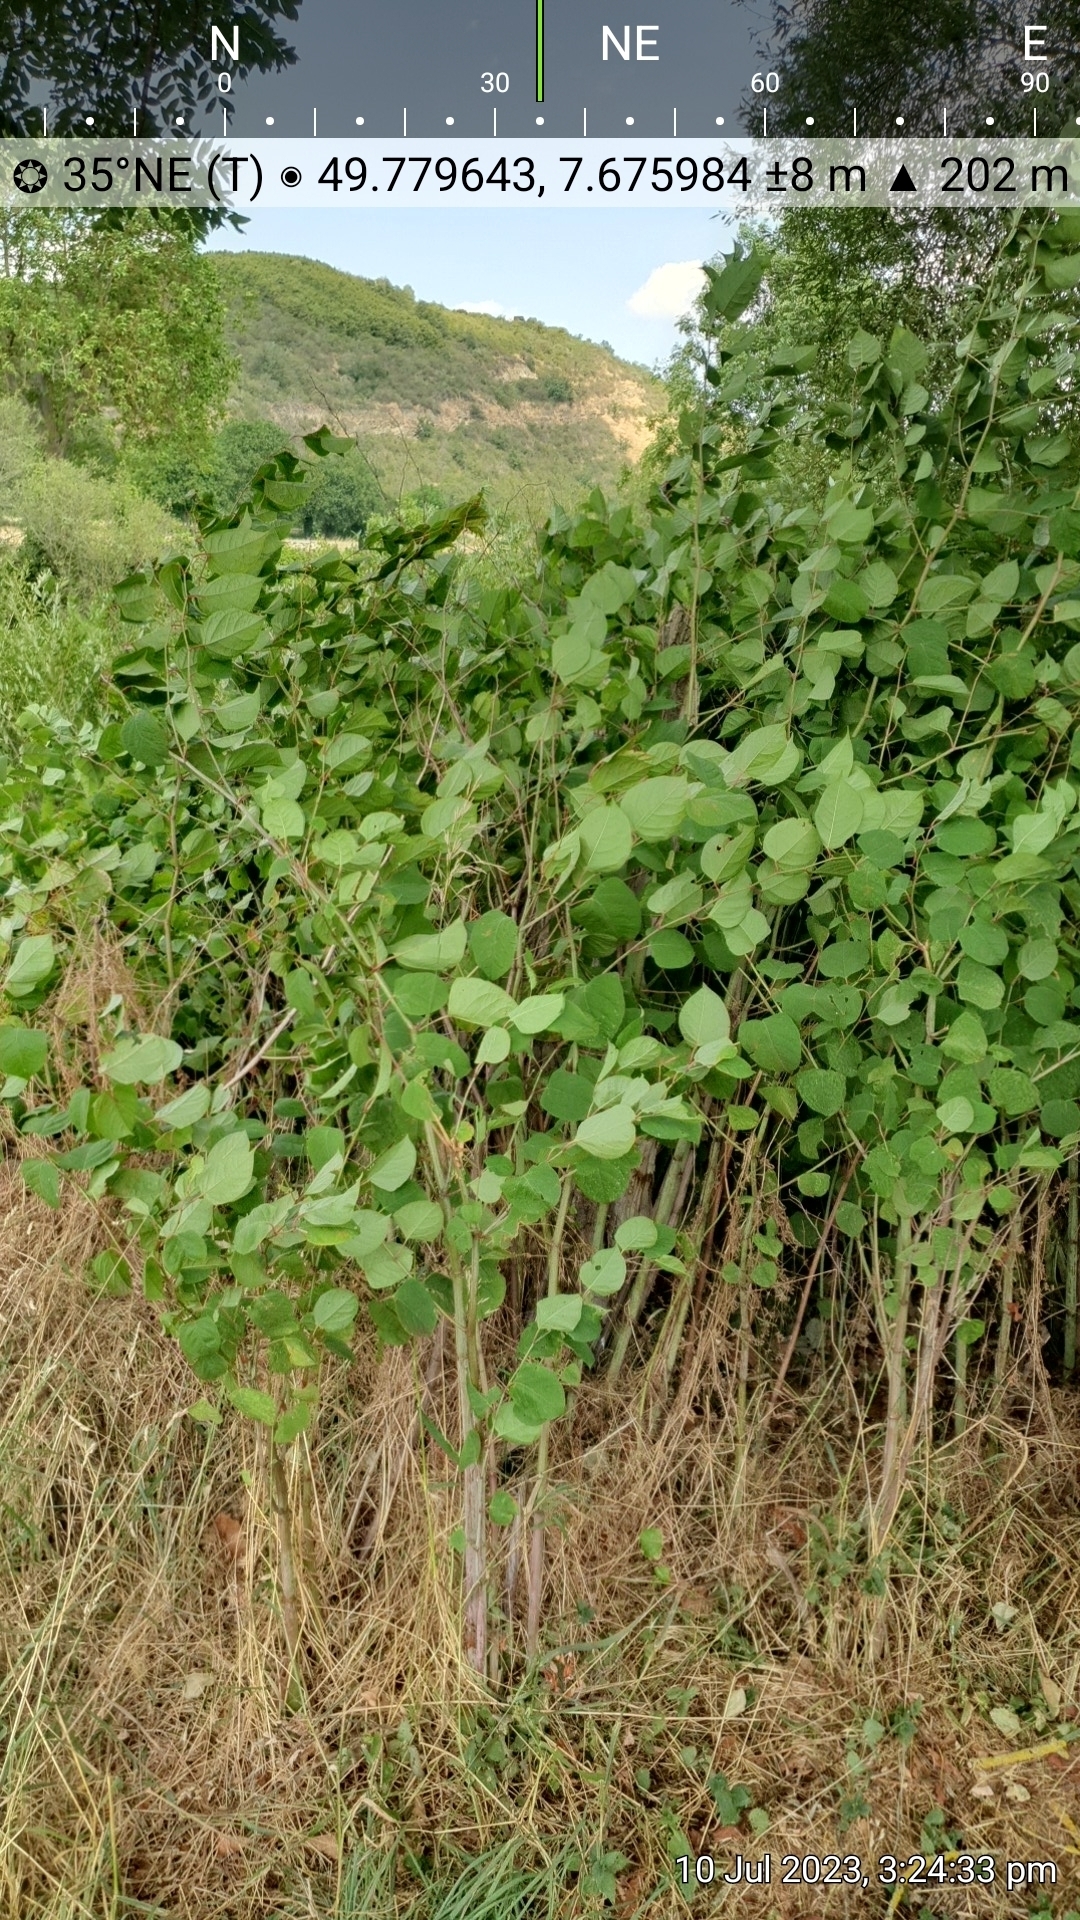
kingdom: Plantae
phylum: Tracheophyta
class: Magnoliopsida
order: Caryophyllales
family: Polygonaceae
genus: Reynoutria
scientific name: Reynoutria japonica
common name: Japanese knotweed
